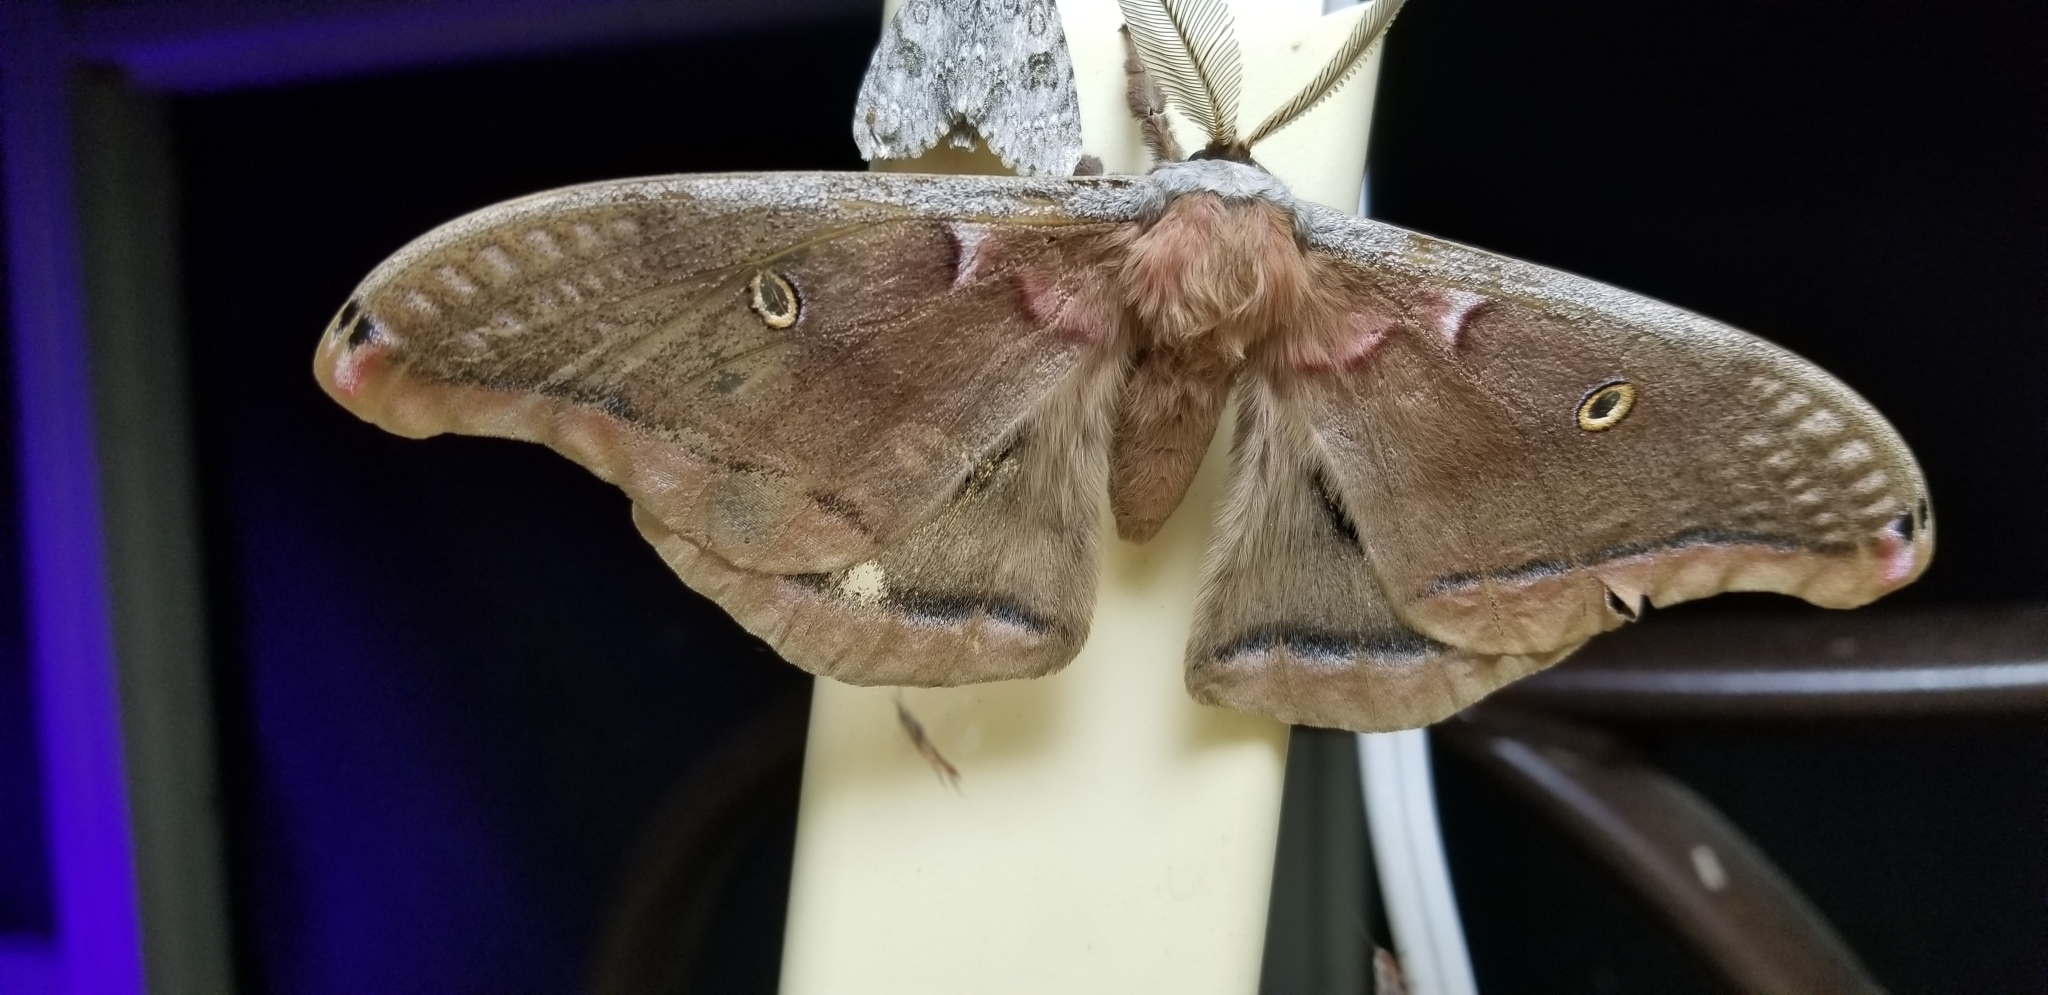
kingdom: Animalia
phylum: Arthropoda
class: Insecta
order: Lepidoptera
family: Saturniidae
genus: Antheraea
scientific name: Antheraea polyphemus
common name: Polyphemus moth
